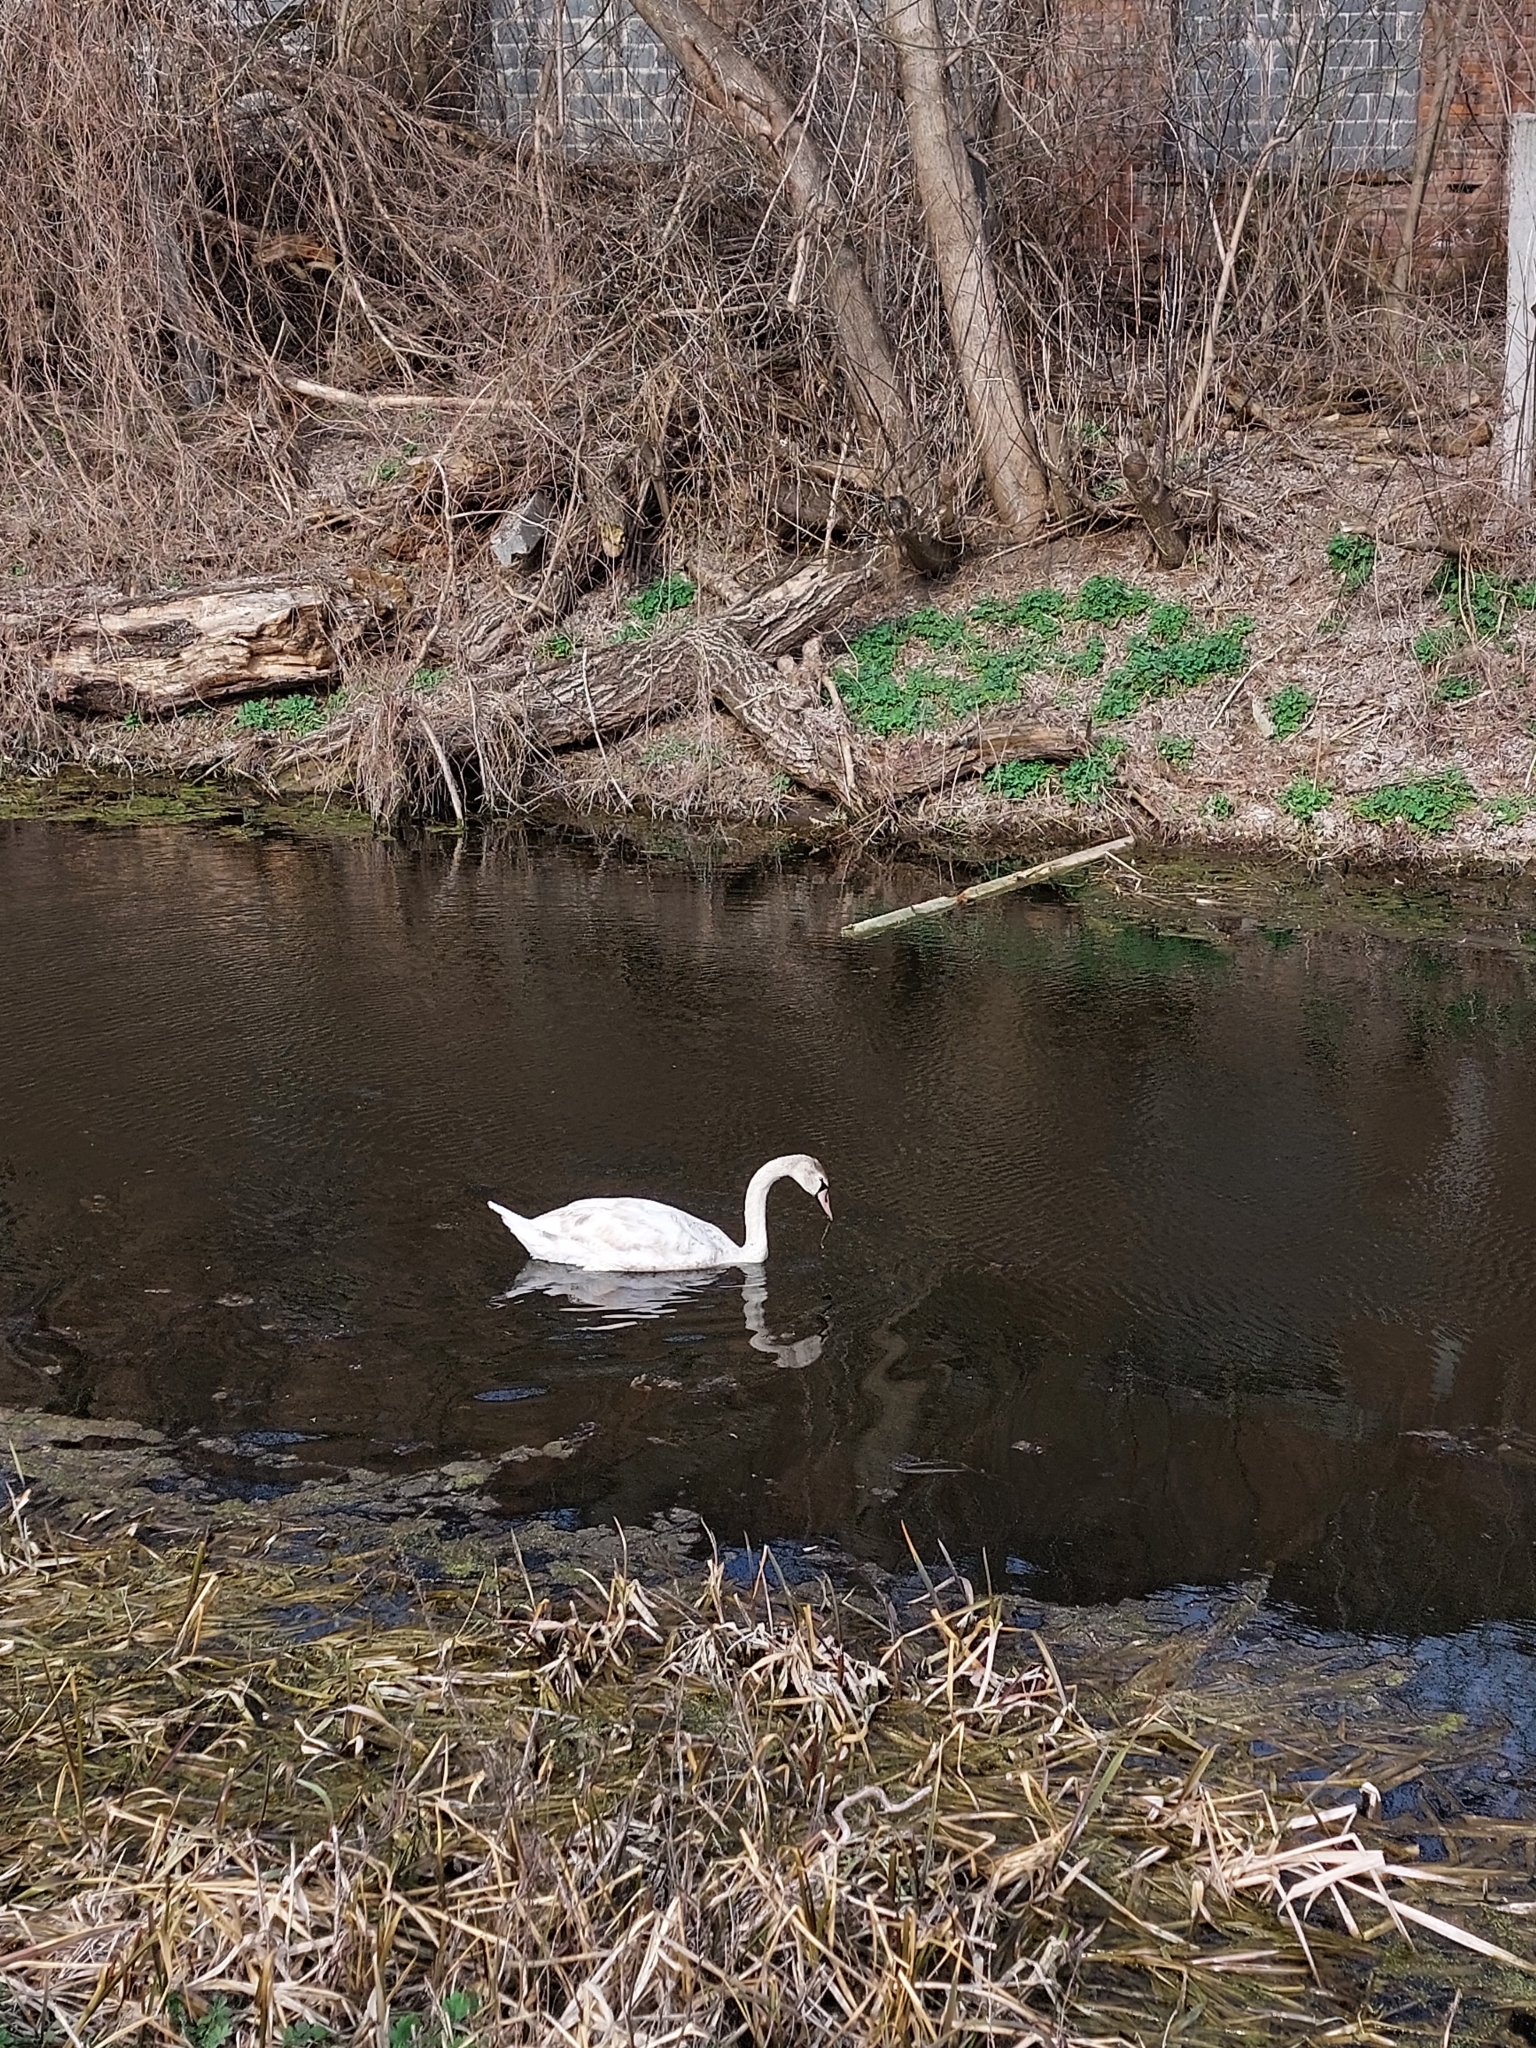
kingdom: Animalia
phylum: Chordata
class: Aves
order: Anseriformes
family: Anatidae
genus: Cygnus
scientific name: Cygnus olor
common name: Mute swan
